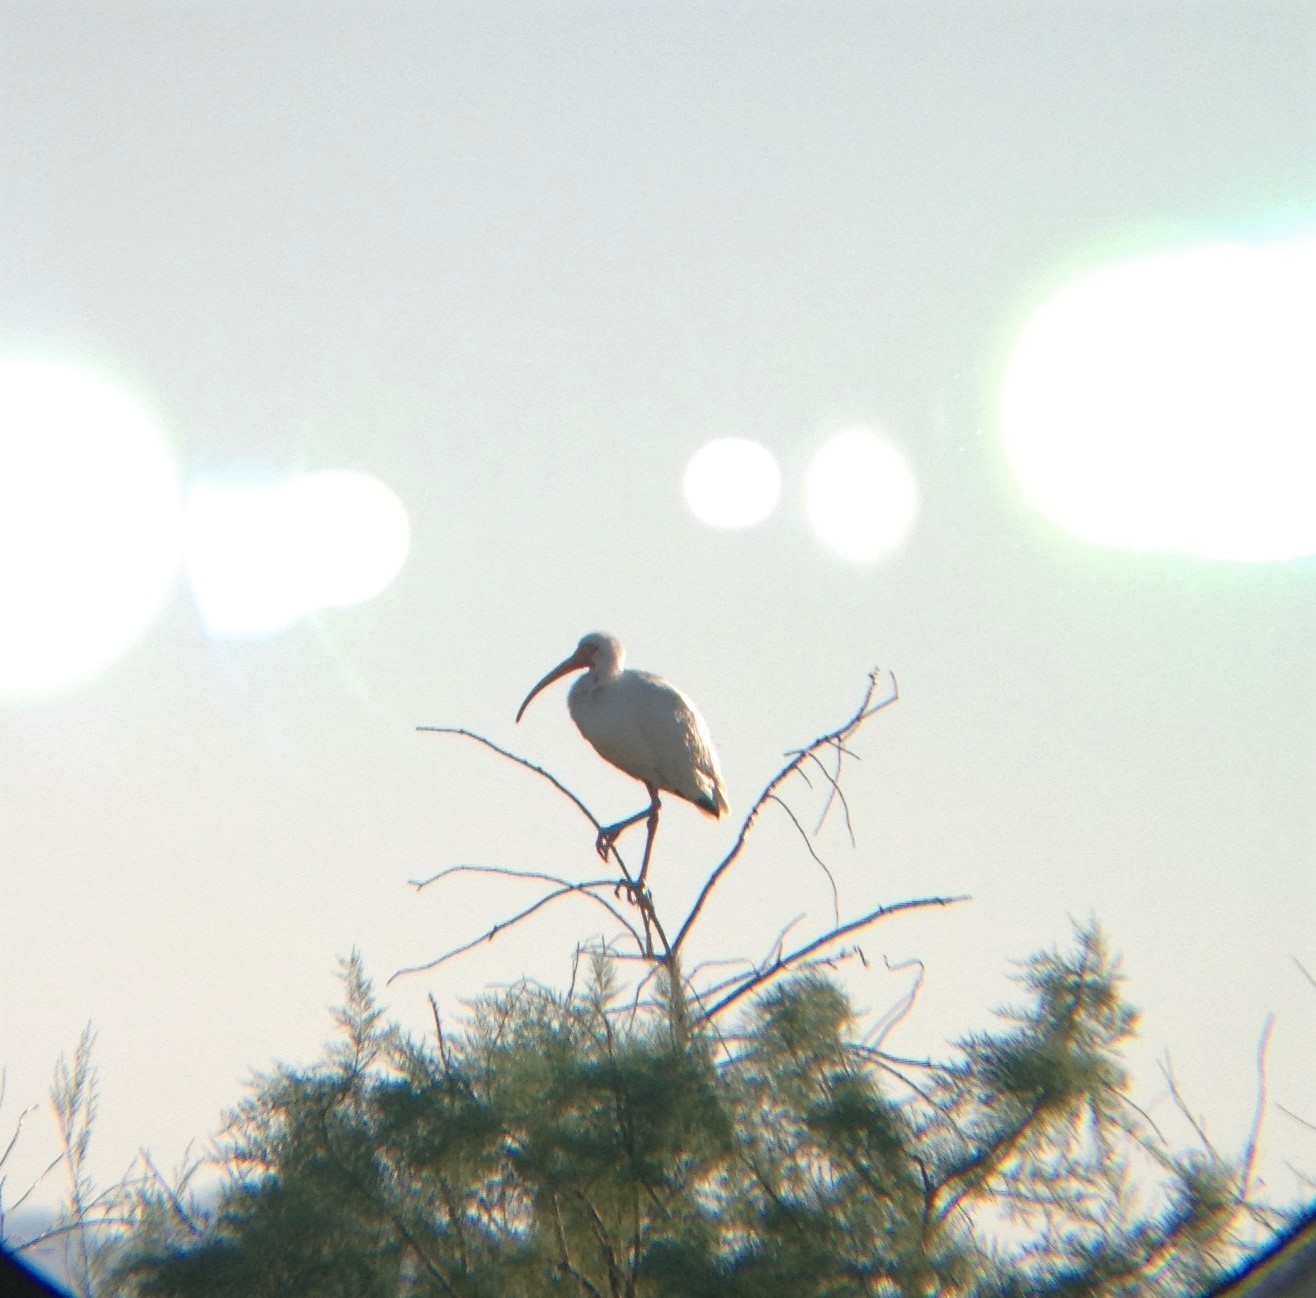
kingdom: Animalia
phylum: Chordata
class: Aves
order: Pelecaniformes
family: Threskiornithidae
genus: Eudocimus
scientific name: Eudocimus albus
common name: White ibis
